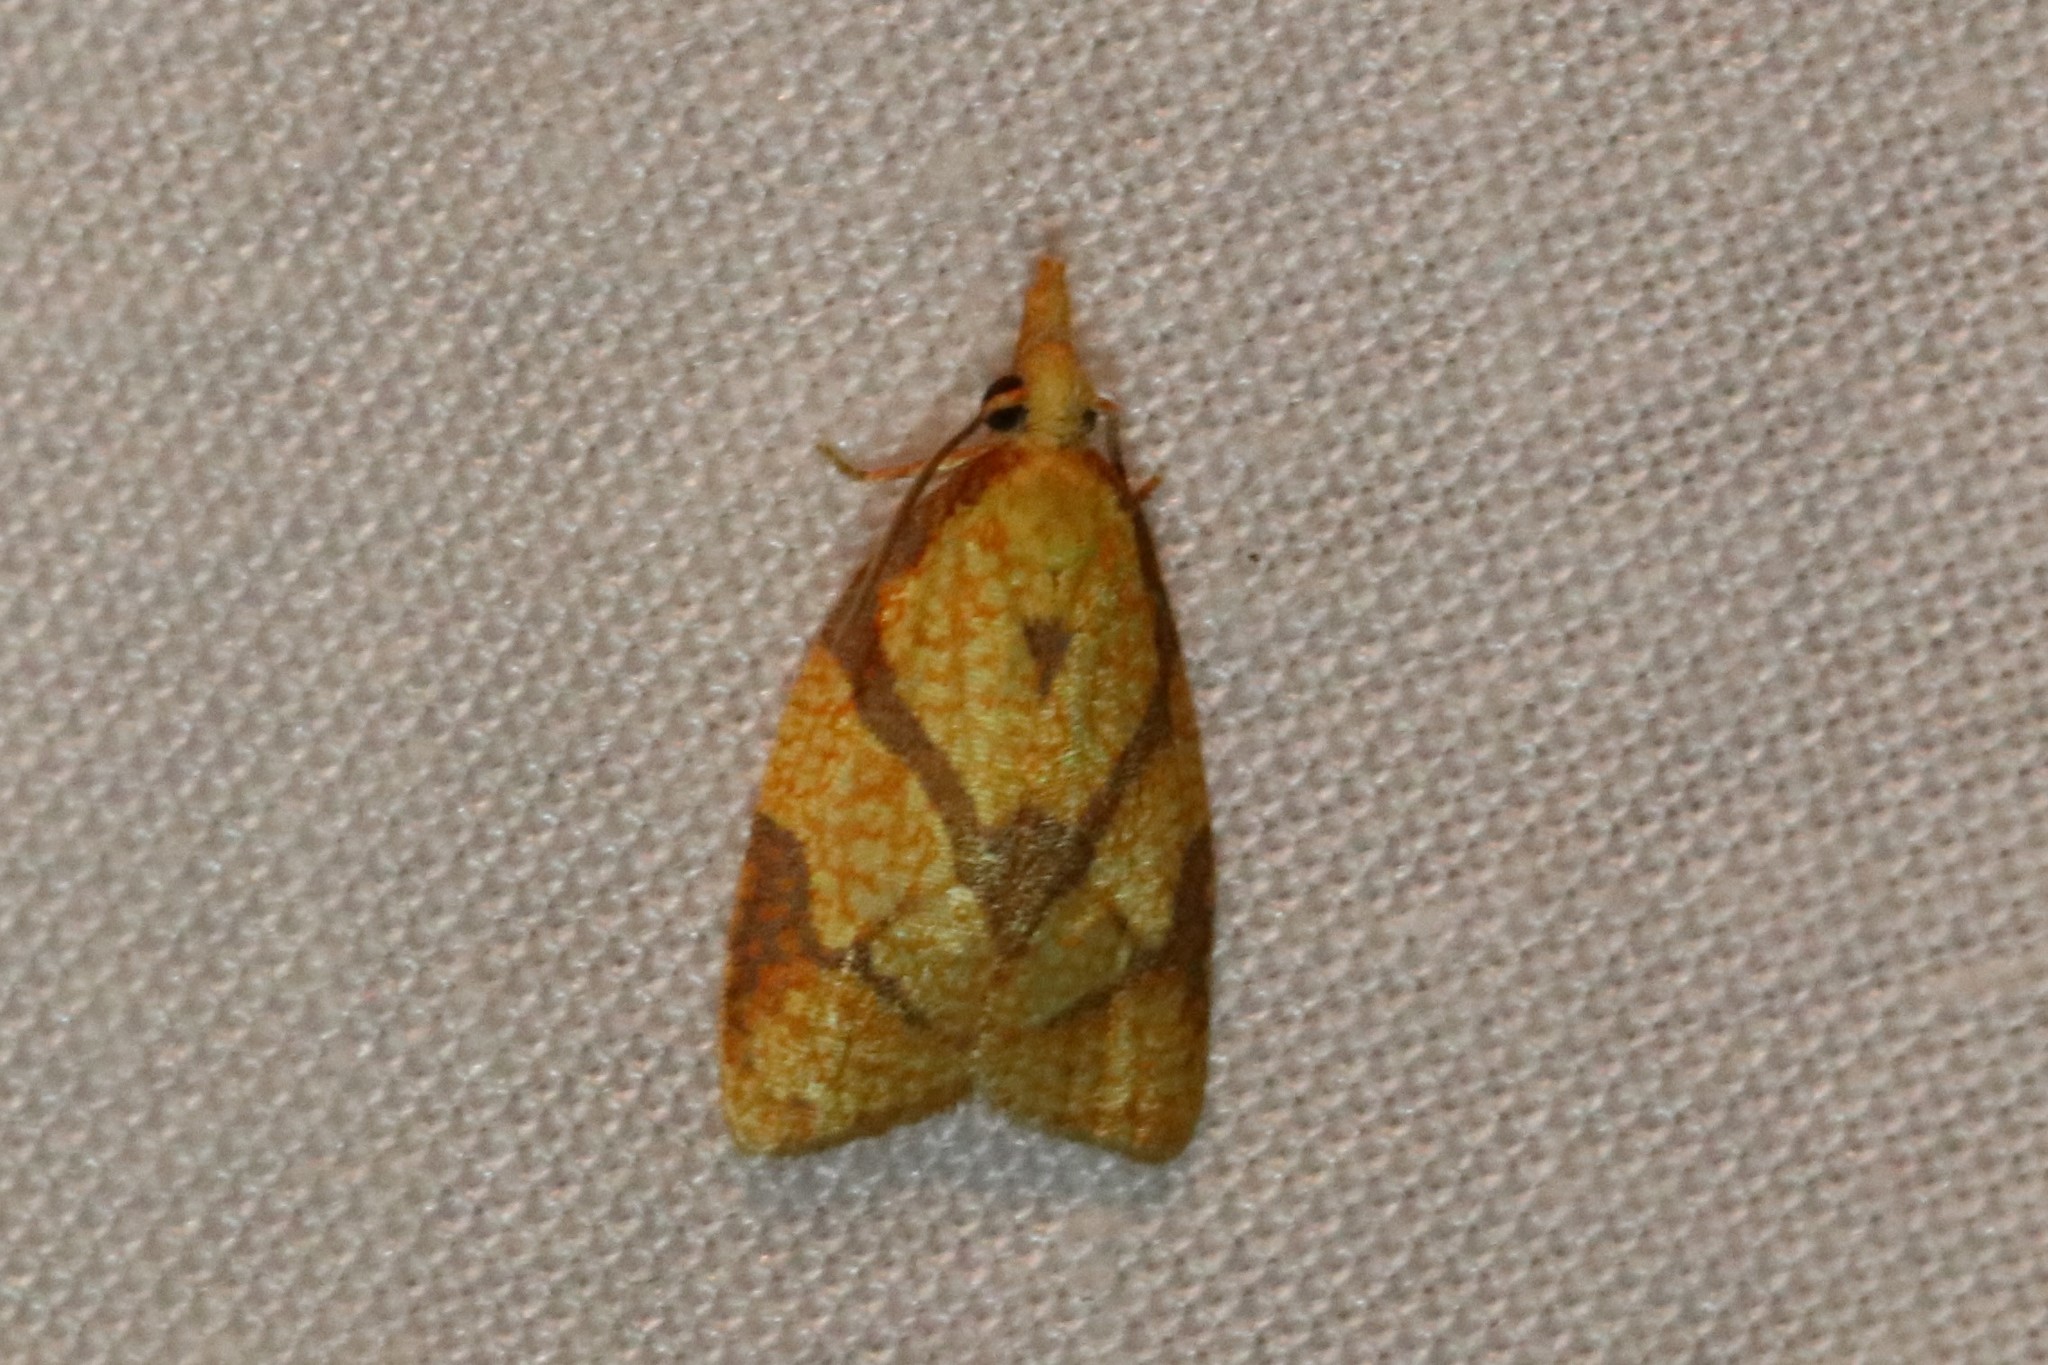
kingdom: Animalia
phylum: Arthropoda
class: Insecta
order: Lepidoptera
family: Tortricidae
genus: Cenopis
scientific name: Cenopis reticulatana
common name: Reticulated fruitworm moth
